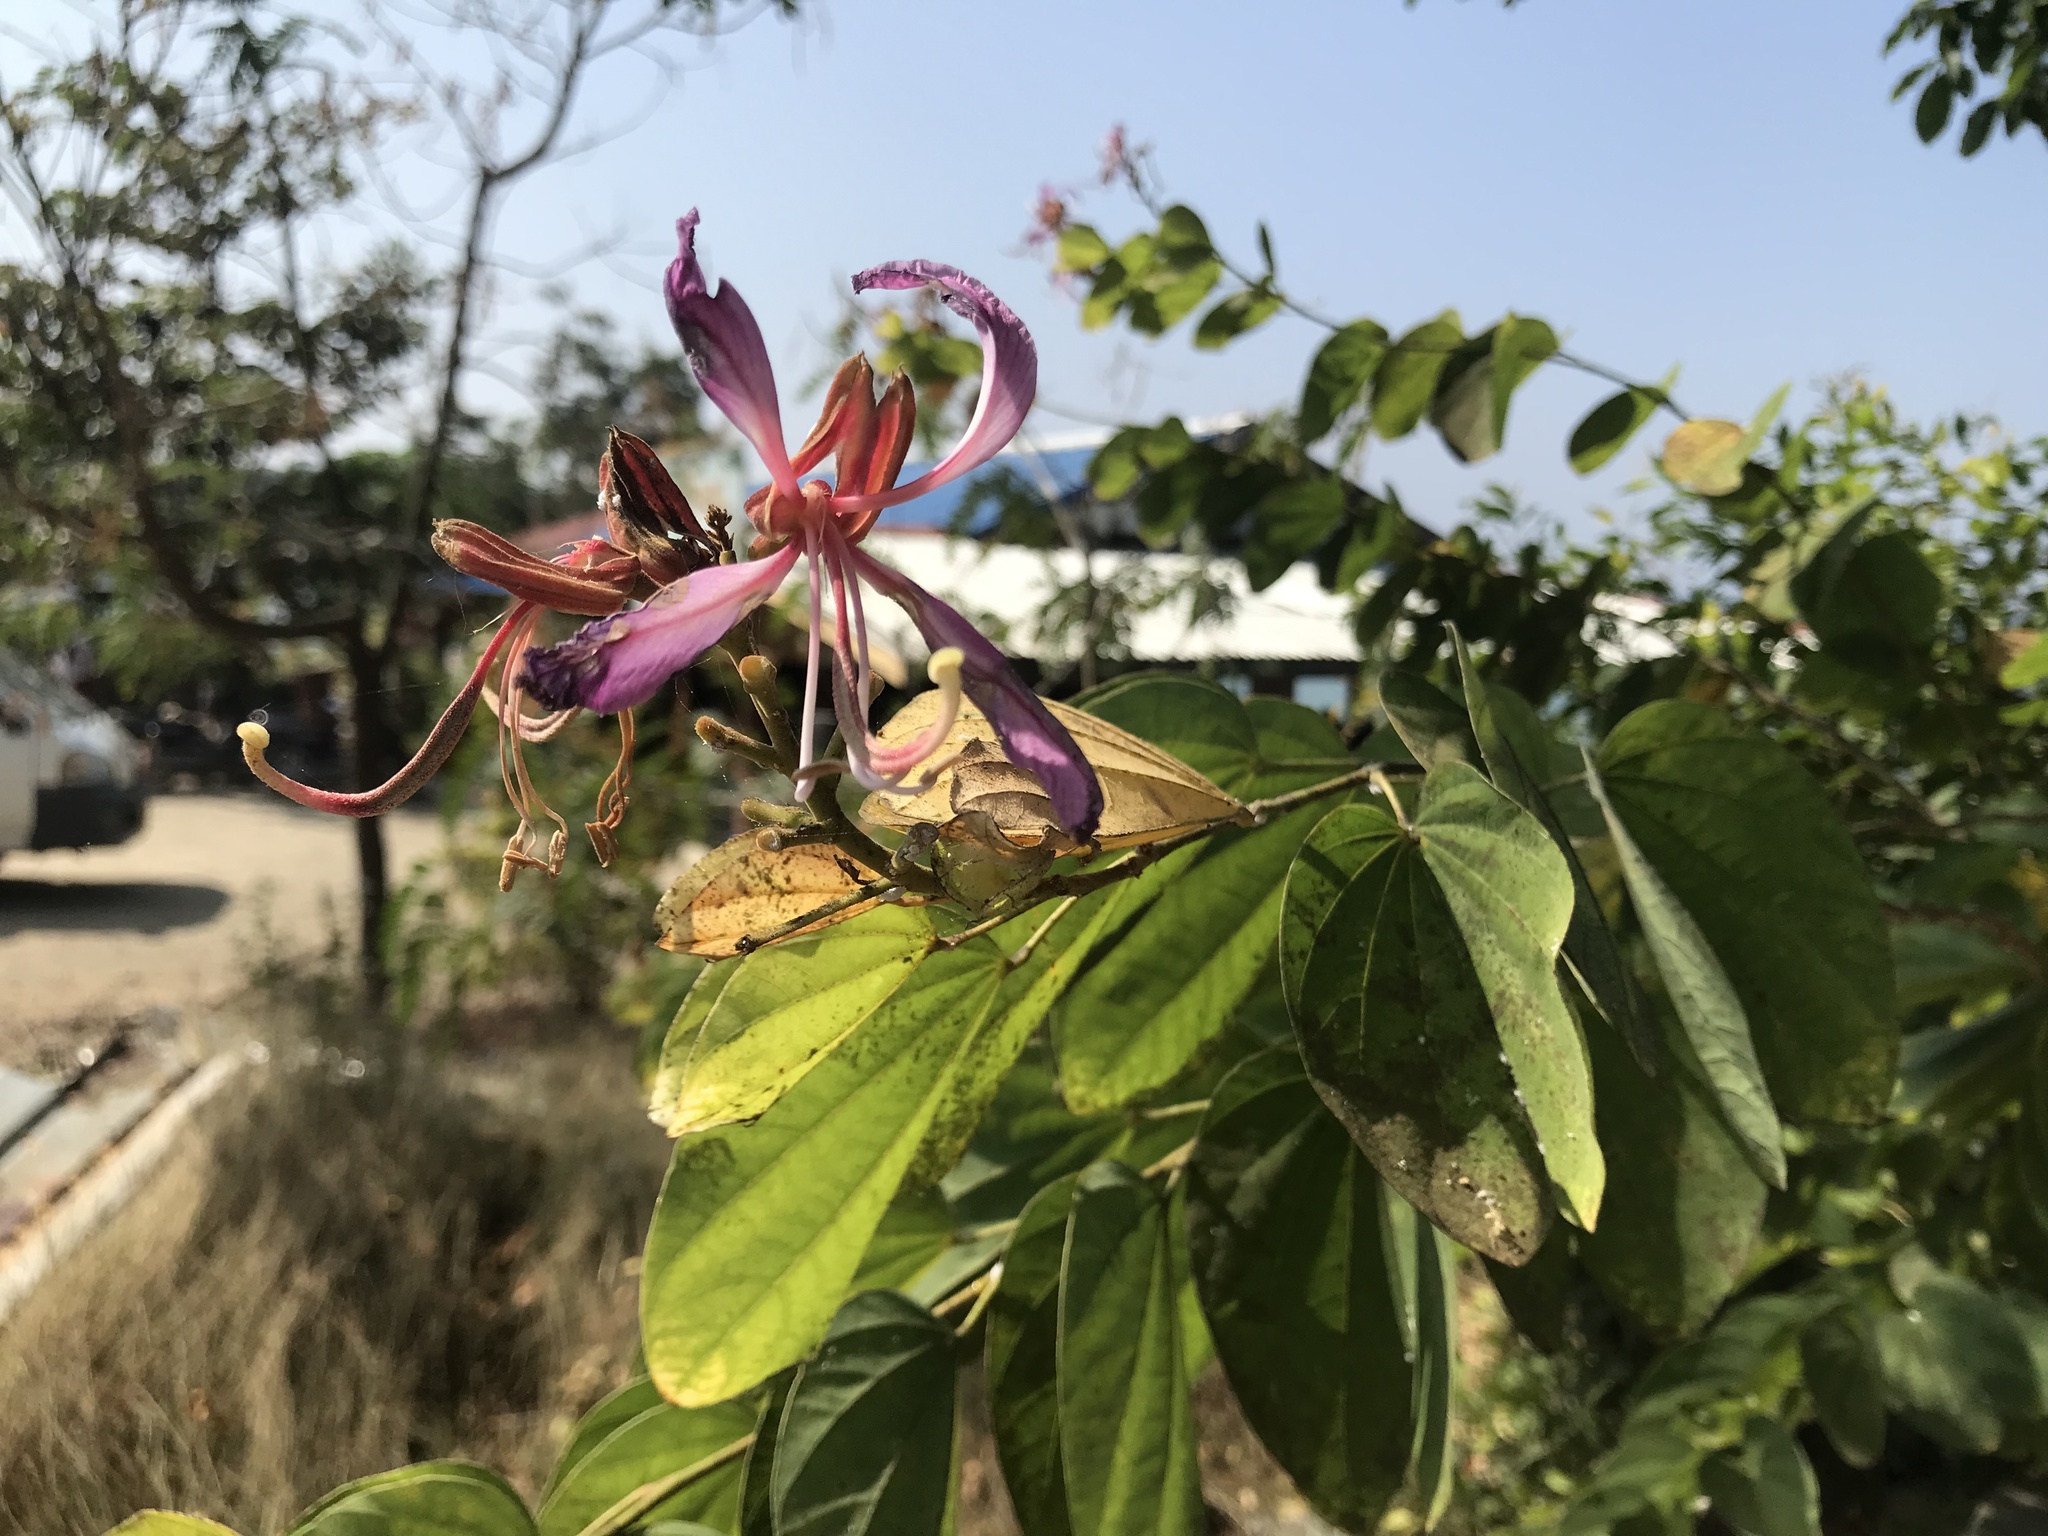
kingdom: Plantae
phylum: Tracheophyta
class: Magnoliopsida
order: Fabales
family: Fabaceae
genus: Bauhinia
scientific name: Bauhinia purpurea
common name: Butterfly-tree
